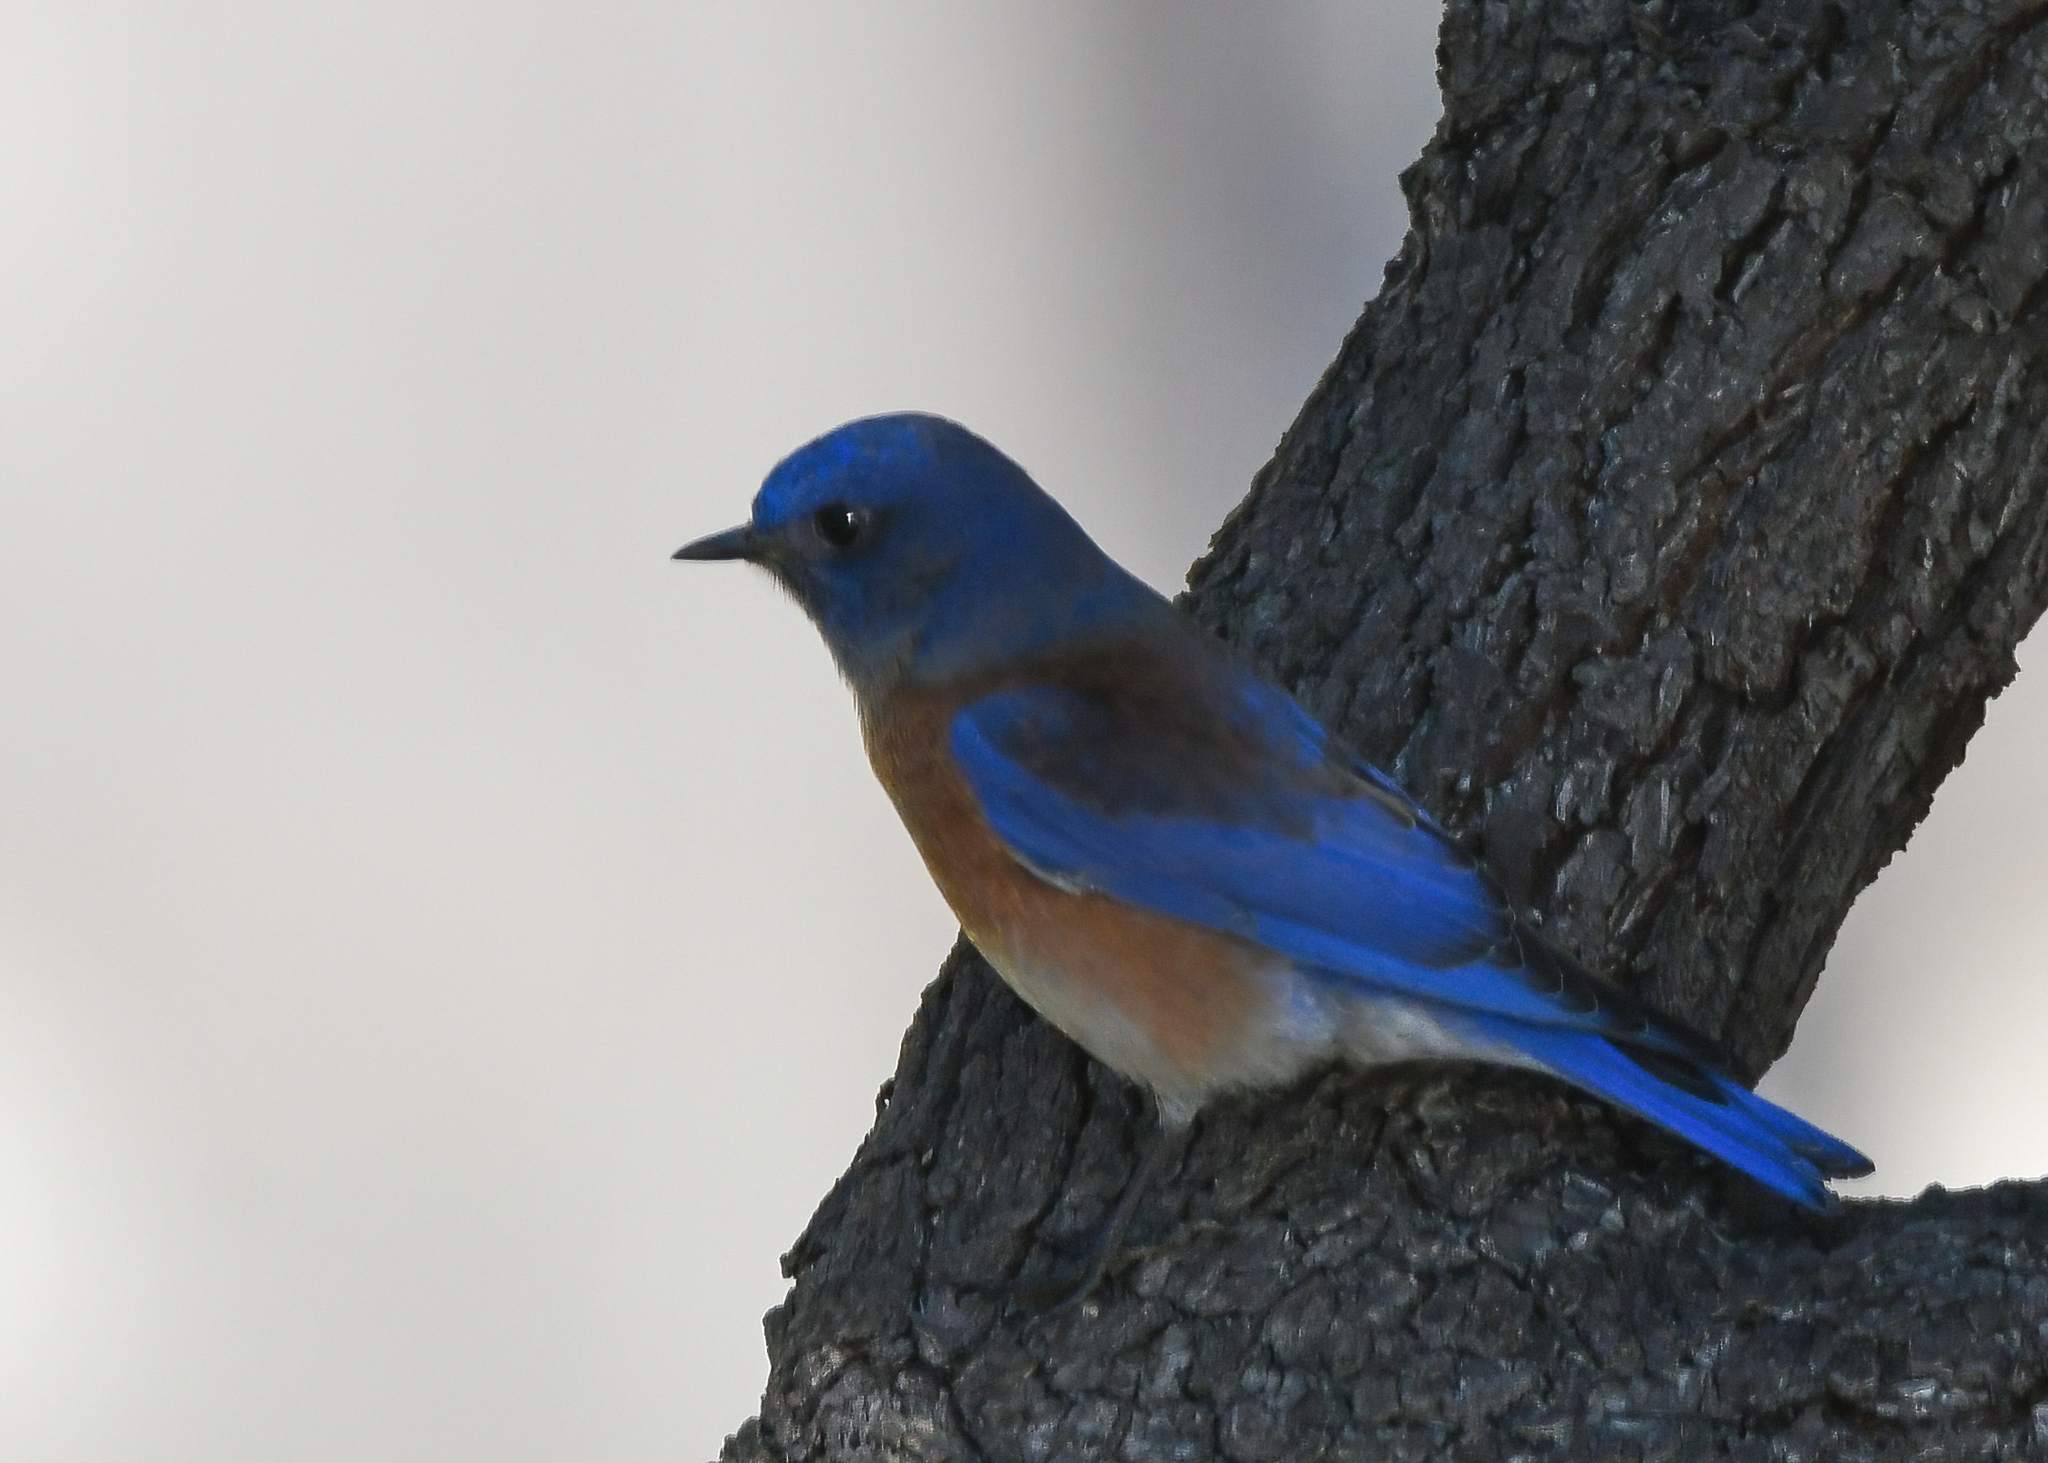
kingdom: Animalia
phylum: Chordata
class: Aves
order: Passeriformes
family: Turdidae
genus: Sialia
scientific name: Sialia mexicana
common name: Western bluebird
